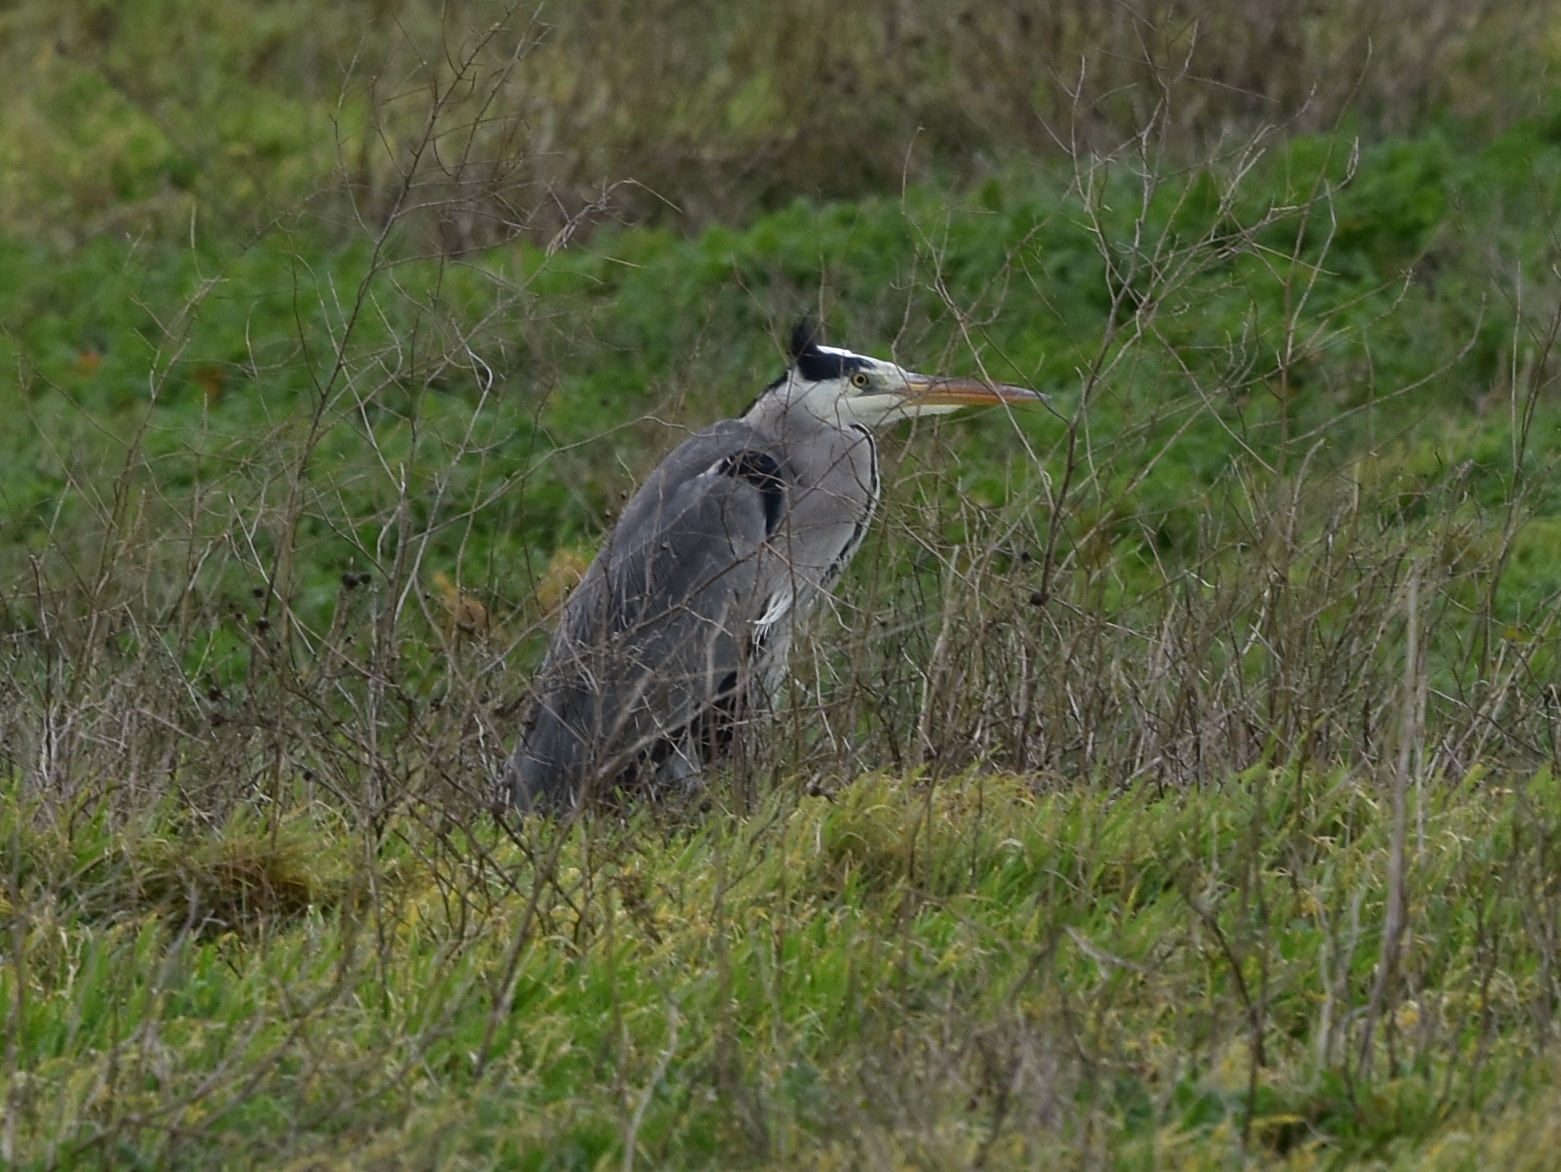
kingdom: Animalia
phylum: Chordata
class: Aves
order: Pelecaniformes
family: Ardeidae
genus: Ardea
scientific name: Ardea cinerea
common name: Grey heron
